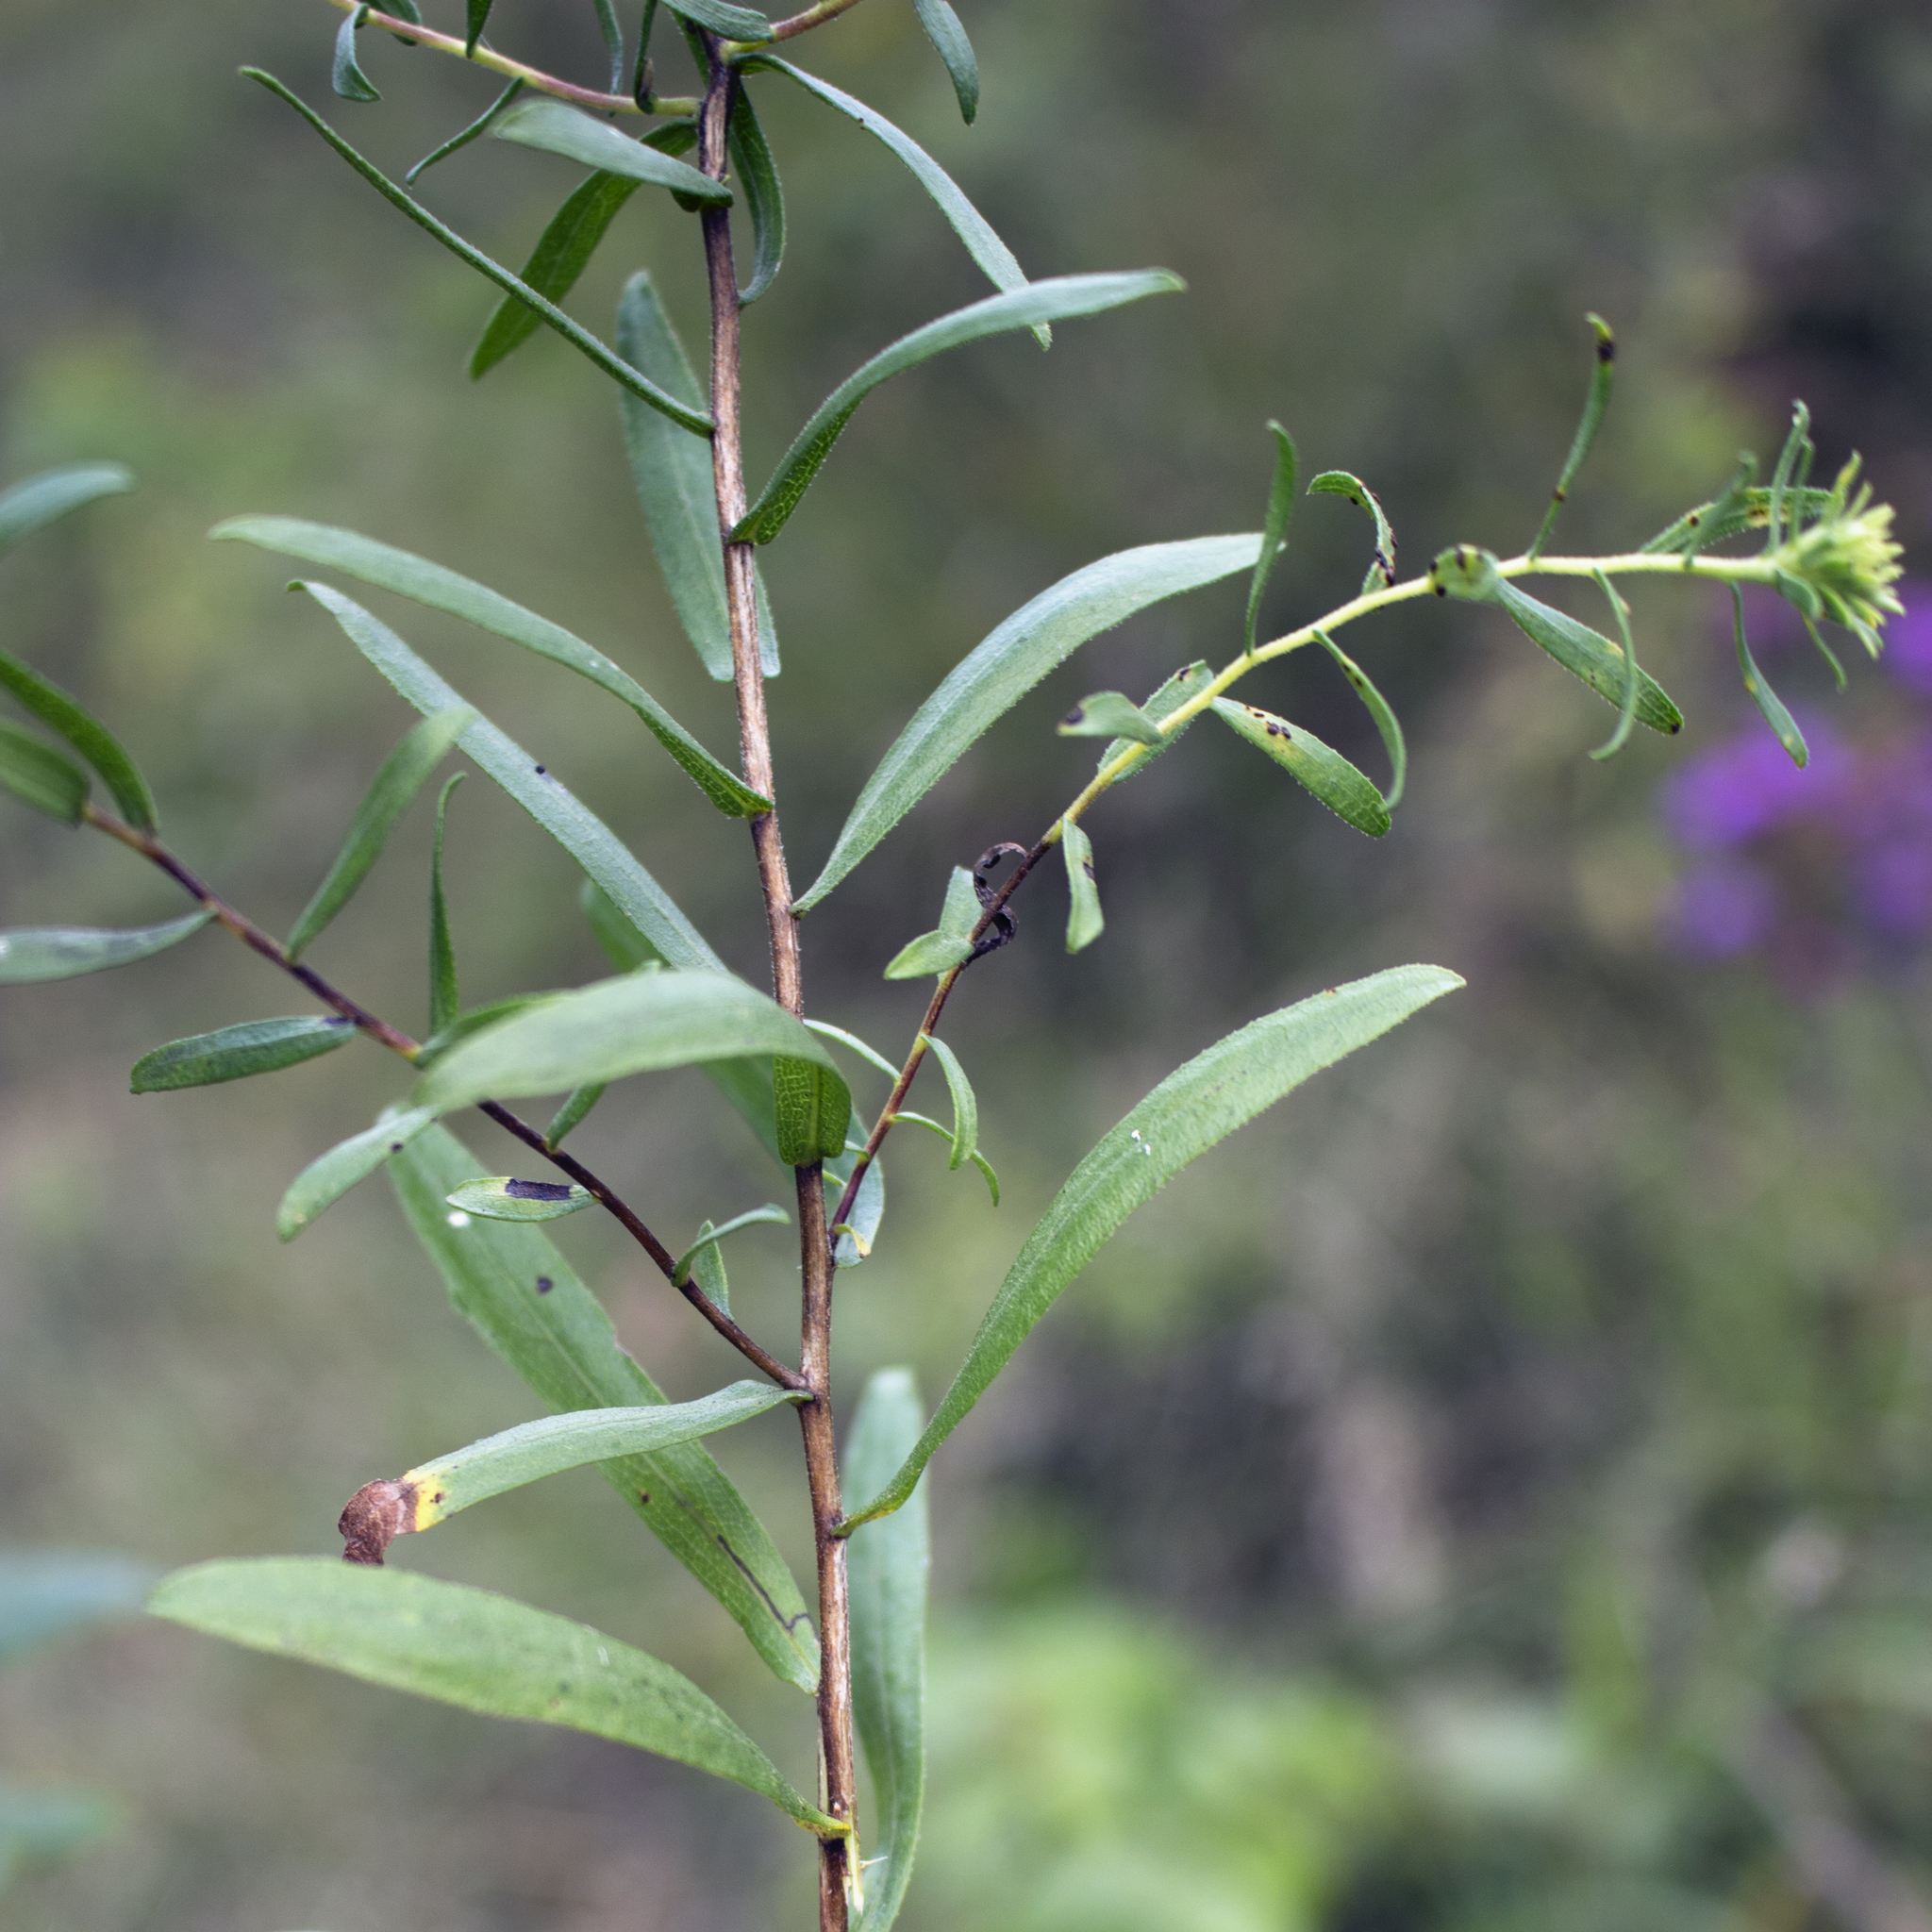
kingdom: Plantae
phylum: Tracheophyta
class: Magnoliopsida
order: Asterales
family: Asteraceae
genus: Symphyotrichum
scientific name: Symphyotrichum oblongifolium
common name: Aromatic aster
